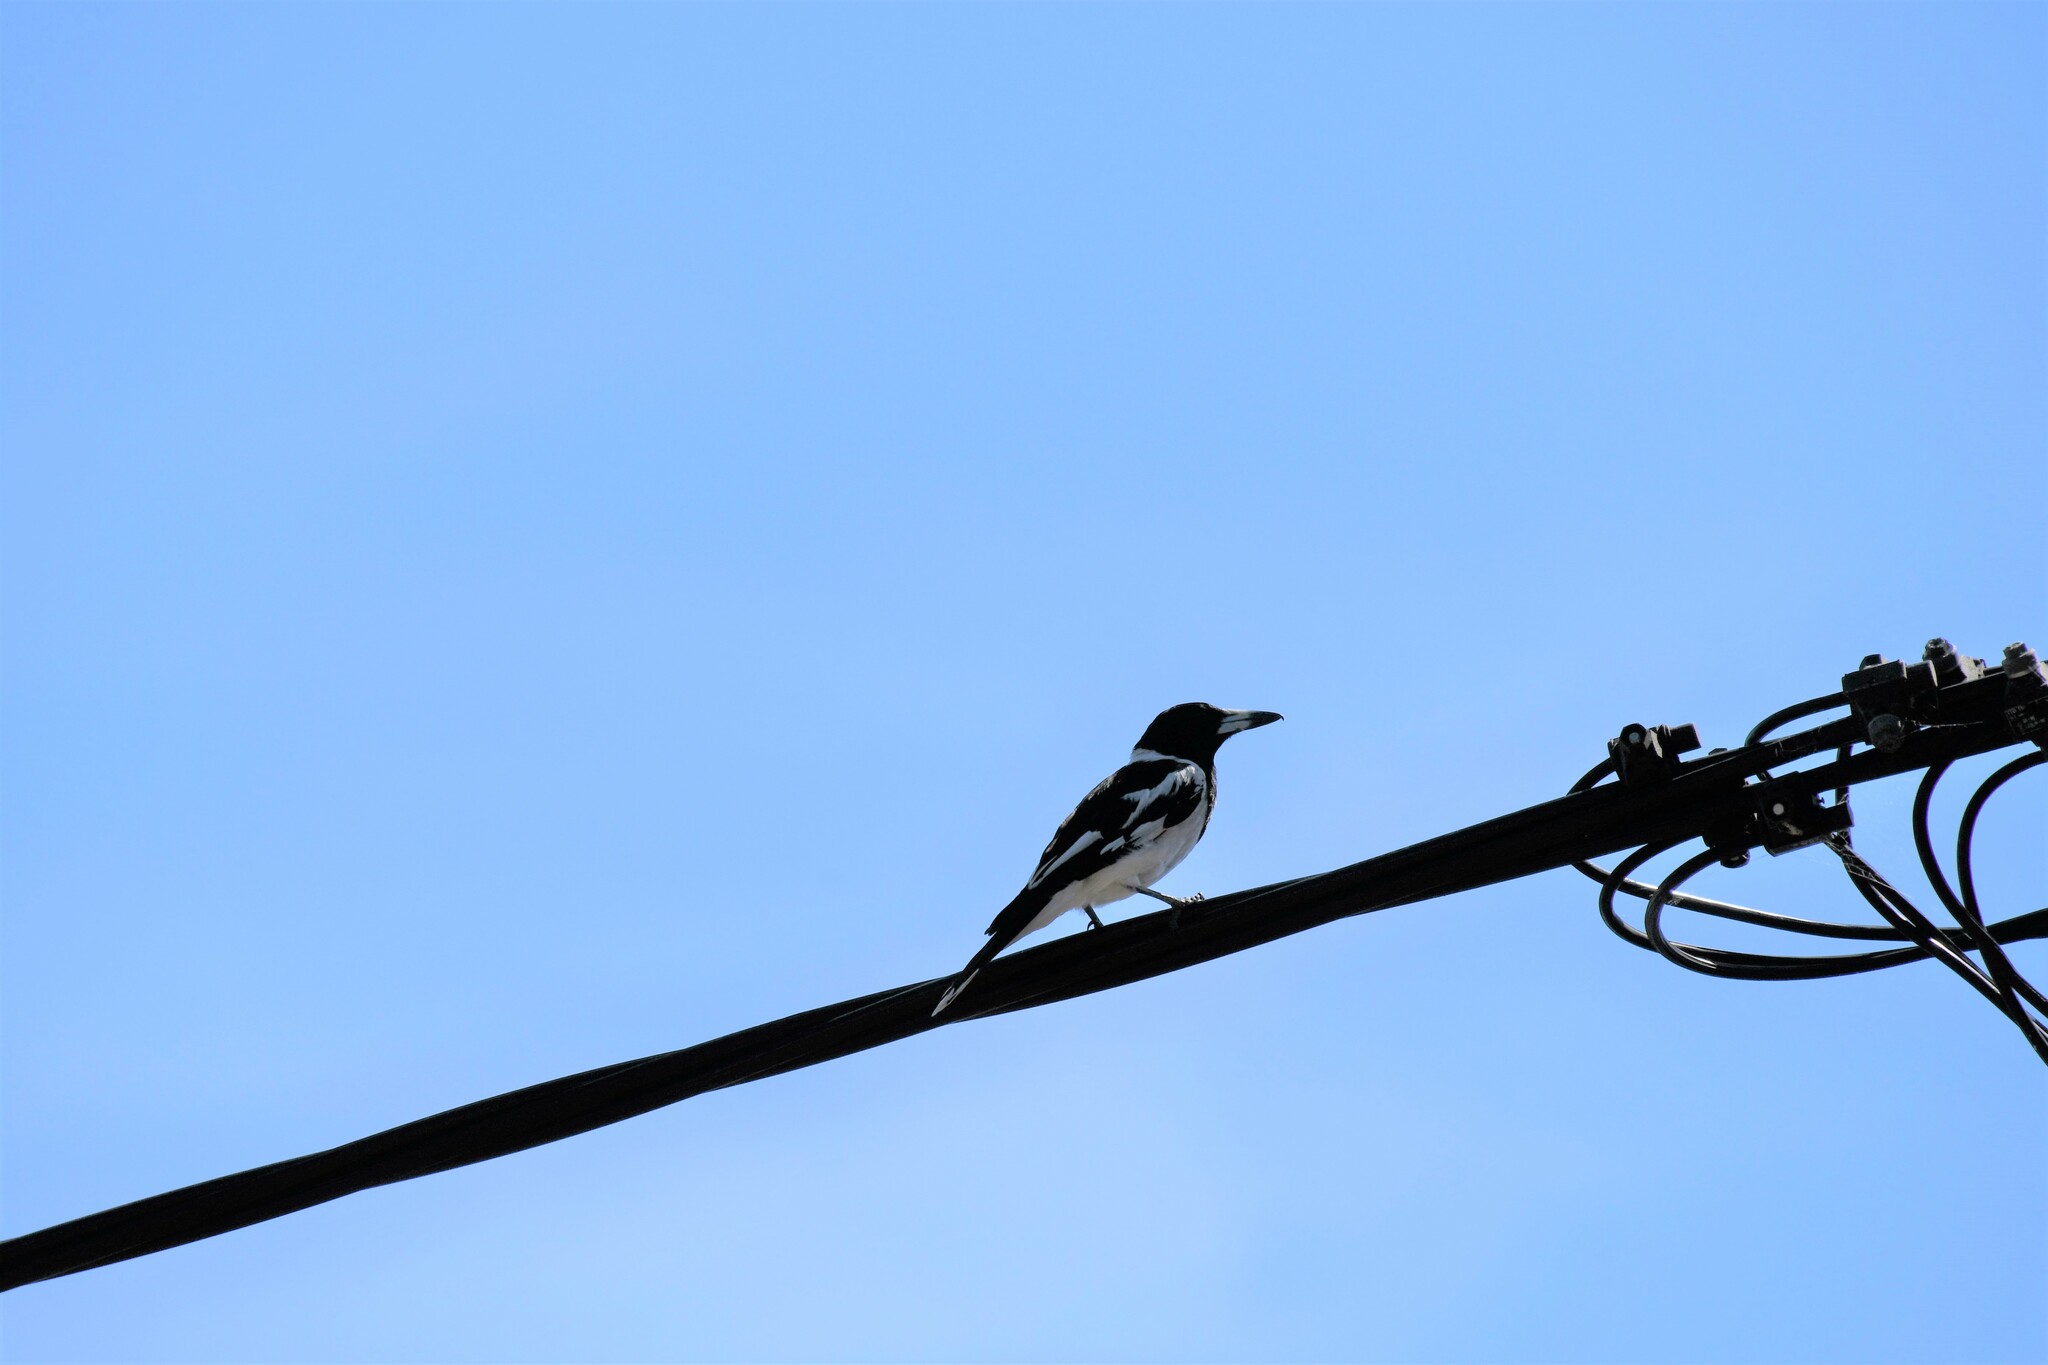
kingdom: Animalia
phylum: Chordata
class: Aves
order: Passeriformes
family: Cracticidae
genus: Cracticus
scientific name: Cracticus nigrogularis
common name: Pied butcherbird
